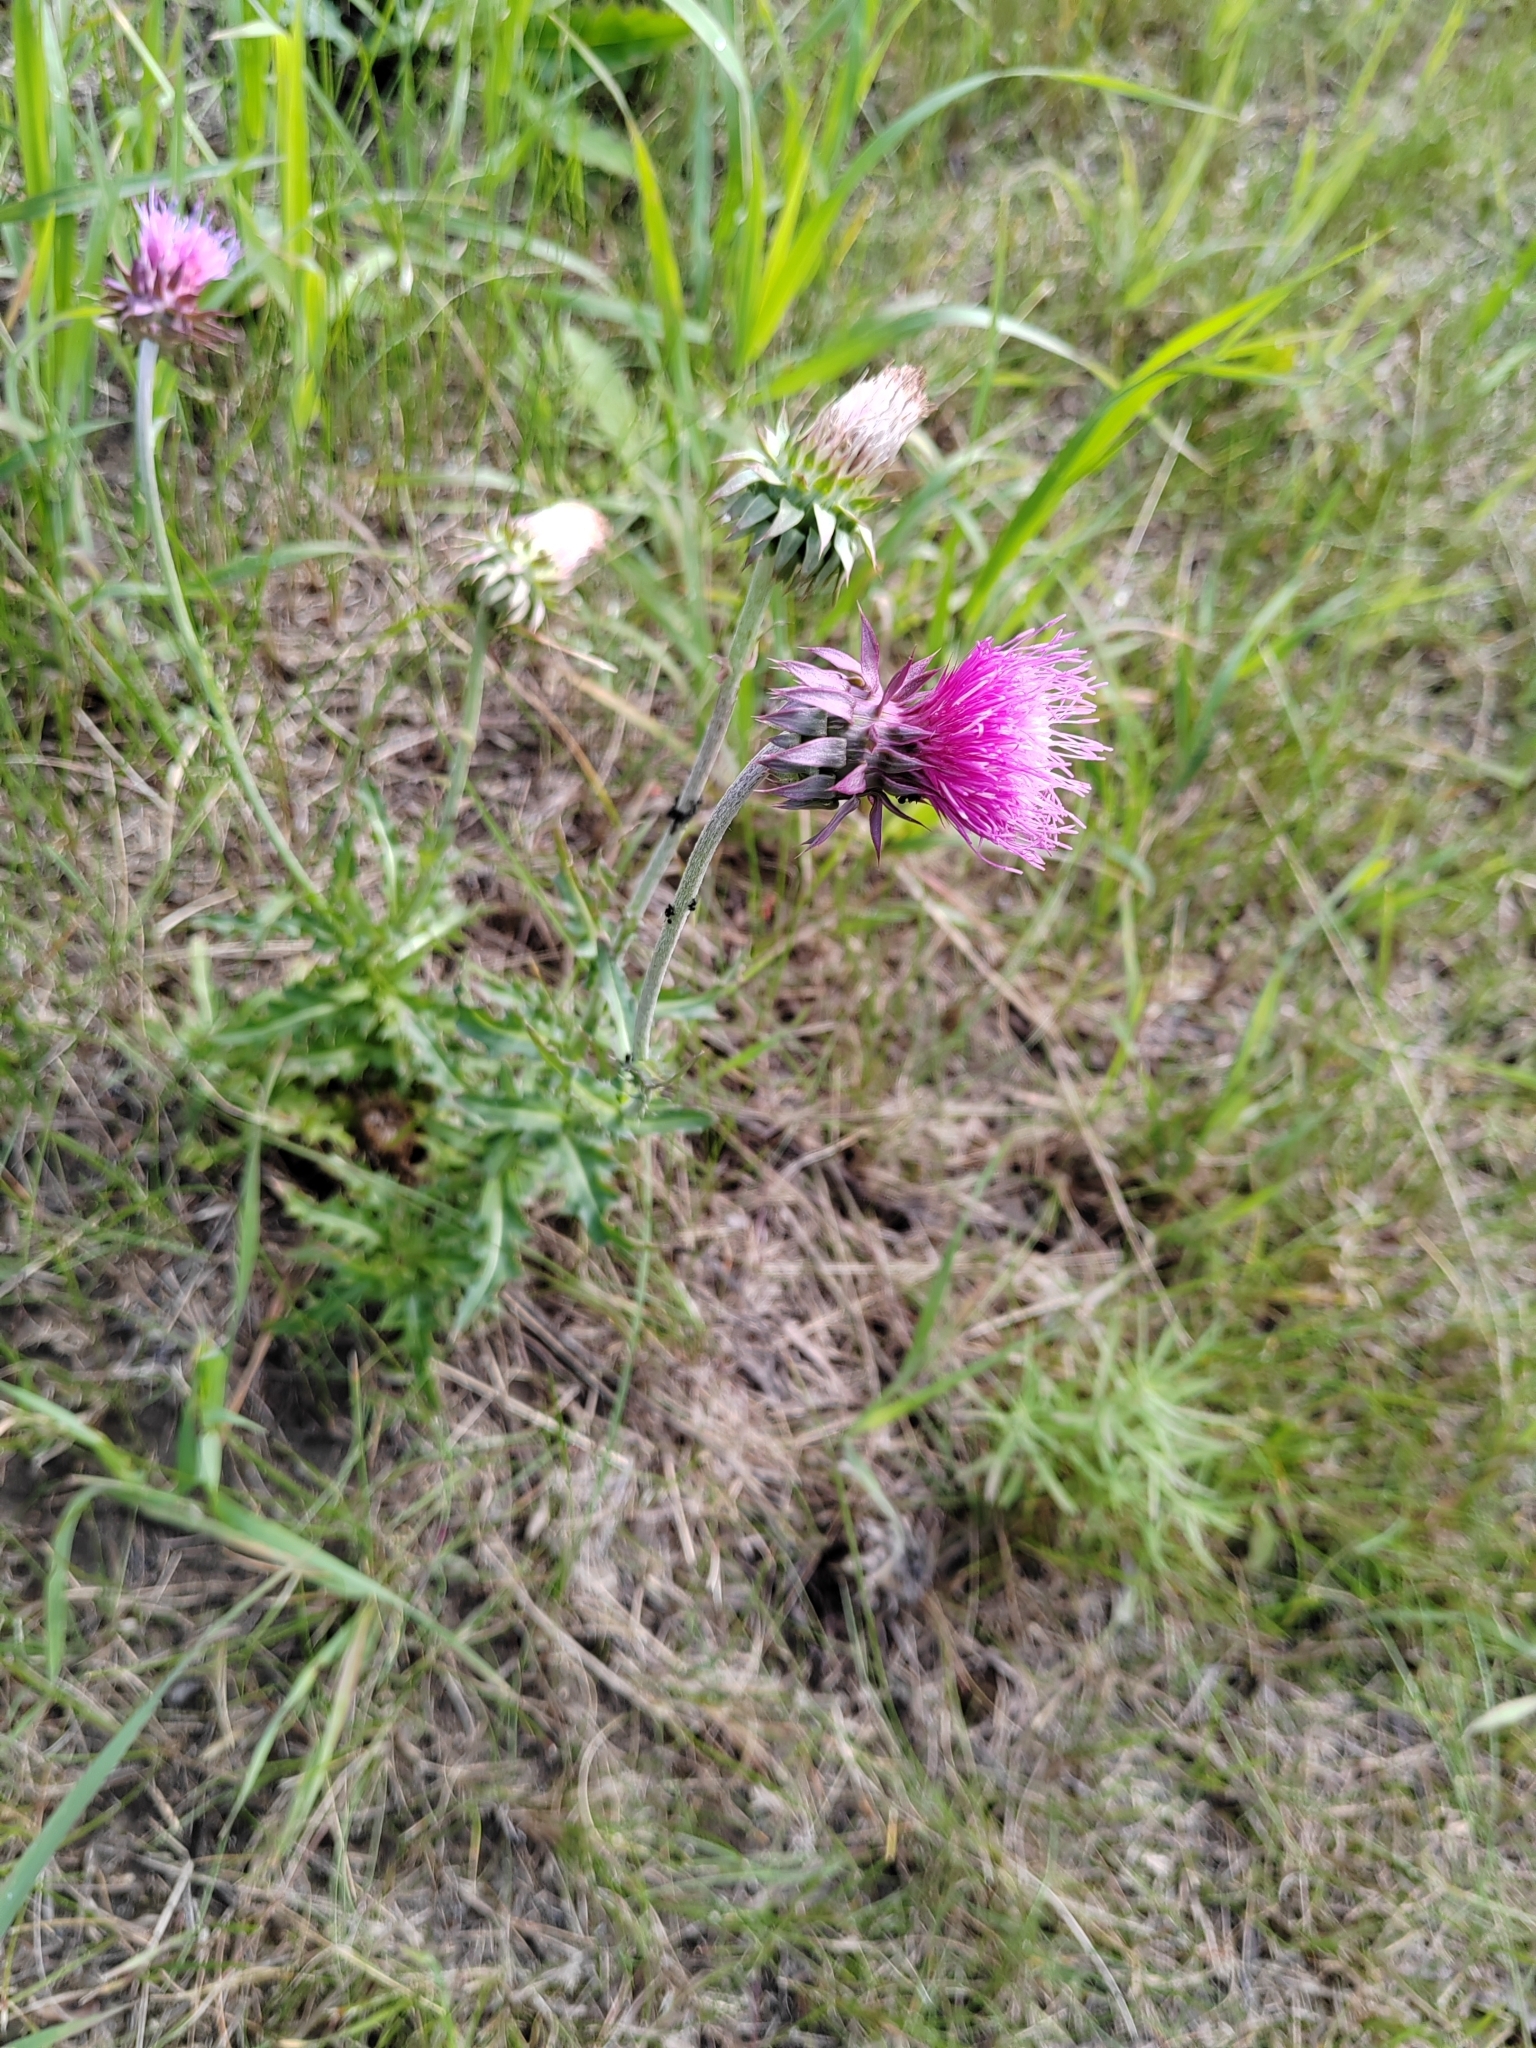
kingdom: Plantae
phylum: Tracheophyta
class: Magnoliopsida
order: Asterales
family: Asteraceae
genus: Carduus
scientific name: Carduus nutans
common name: Musk thistle
